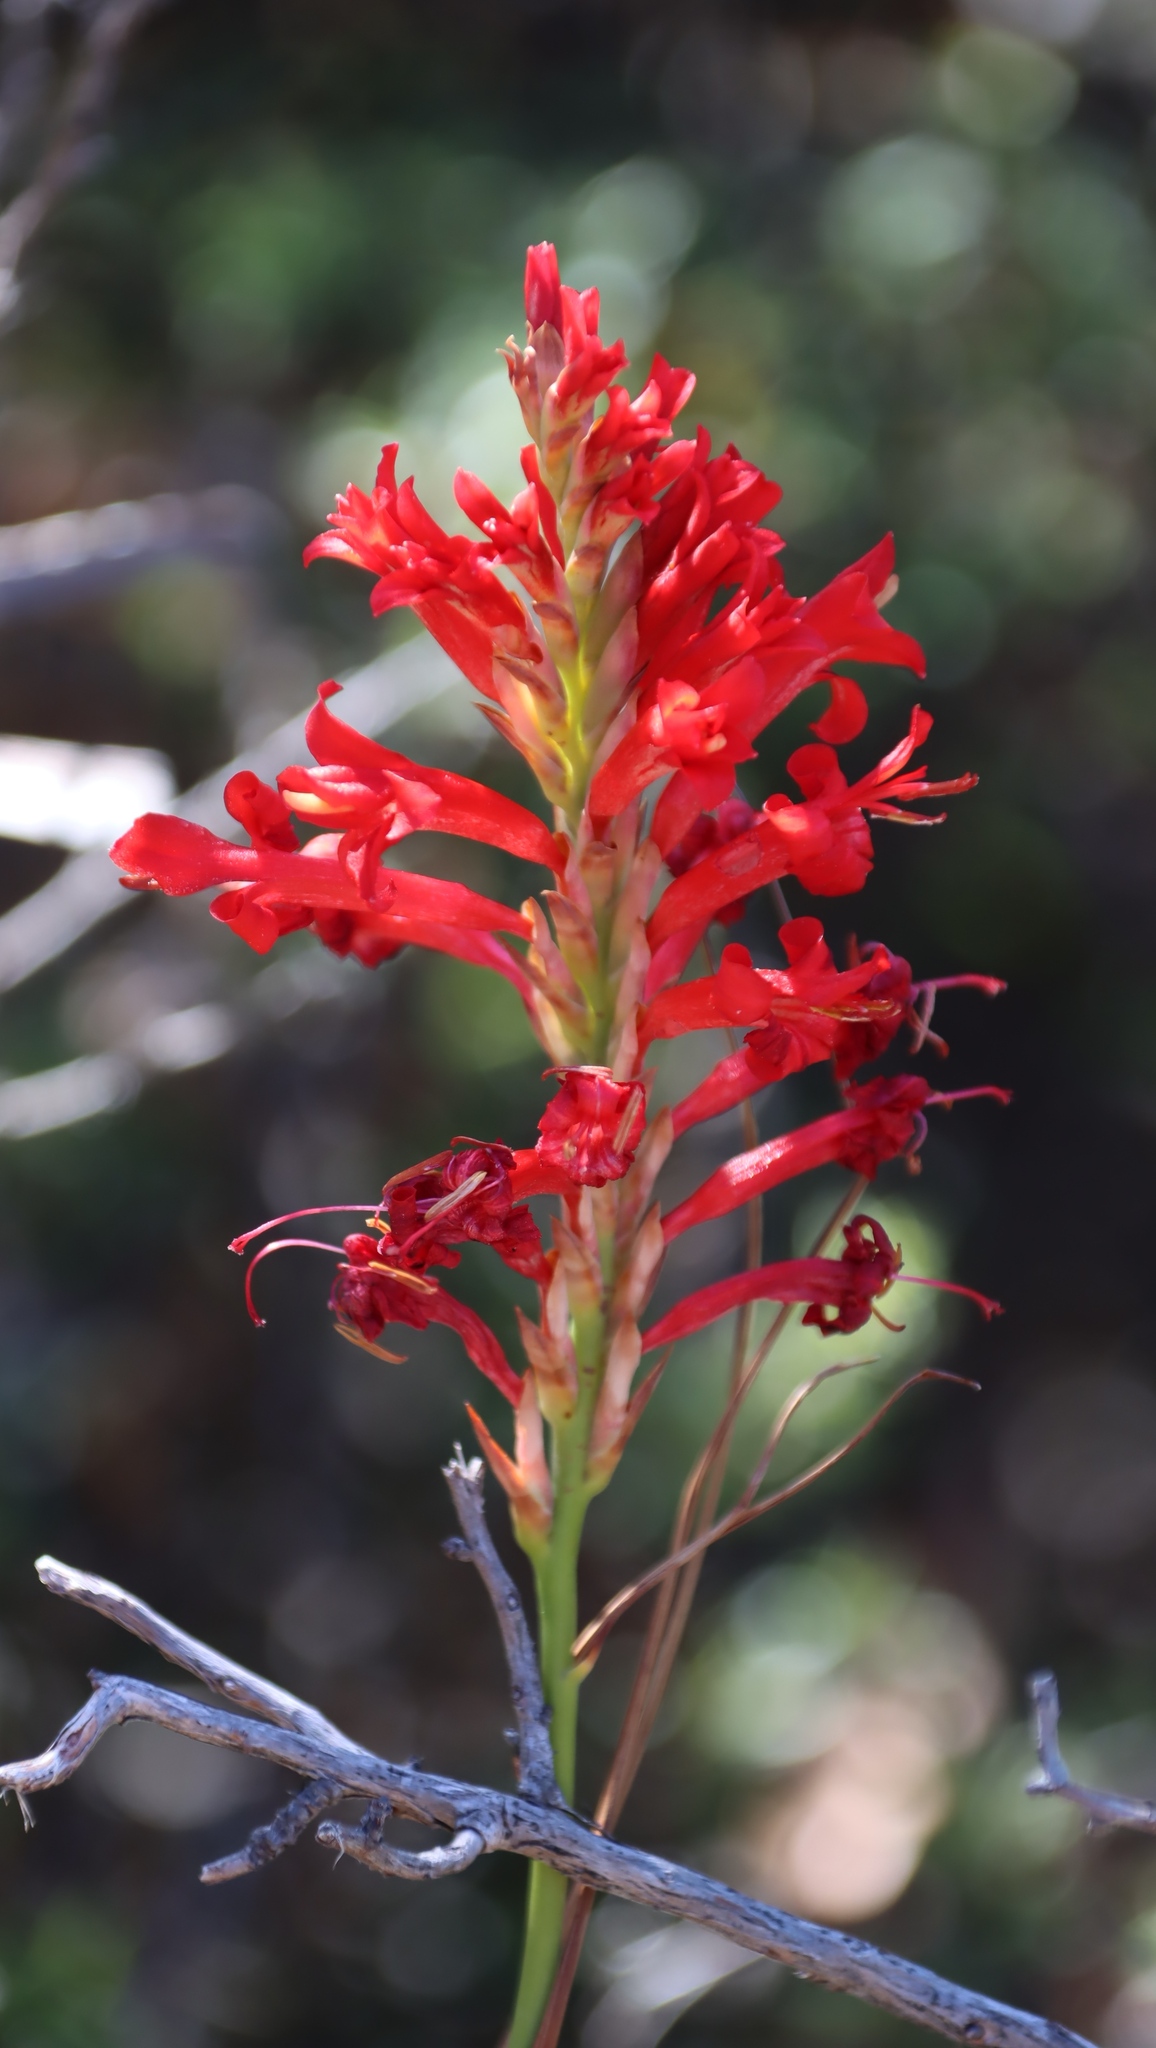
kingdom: Plantae
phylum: Tracheophyta
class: Liliopsida
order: Asparagales
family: Iridaceae
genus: Tritoniopsis
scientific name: Tritoniopsis triticea
